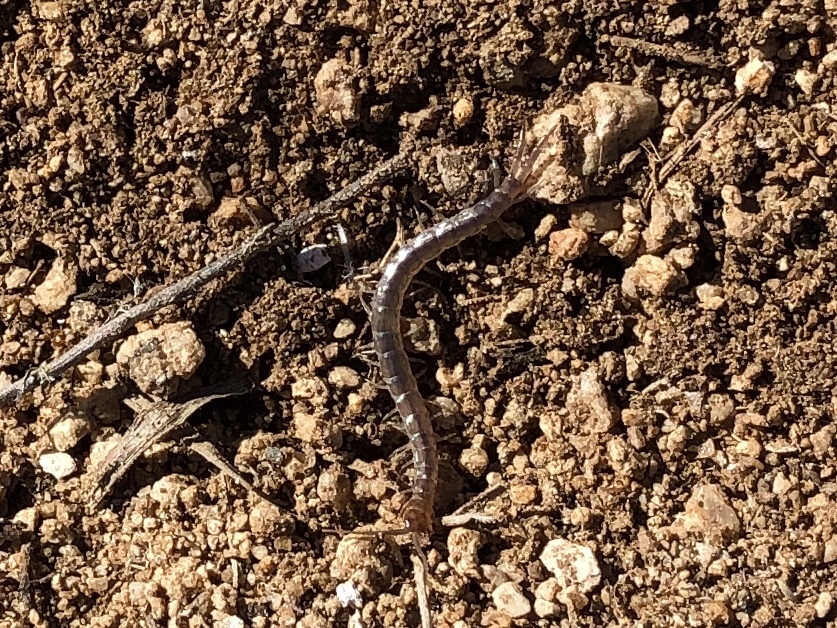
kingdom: Animalia
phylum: Arthropoda
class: Chilopoda
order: Scolopendromorpha
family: Scolopendridae
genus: Scolopendra
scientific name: Scolopendra viridis
